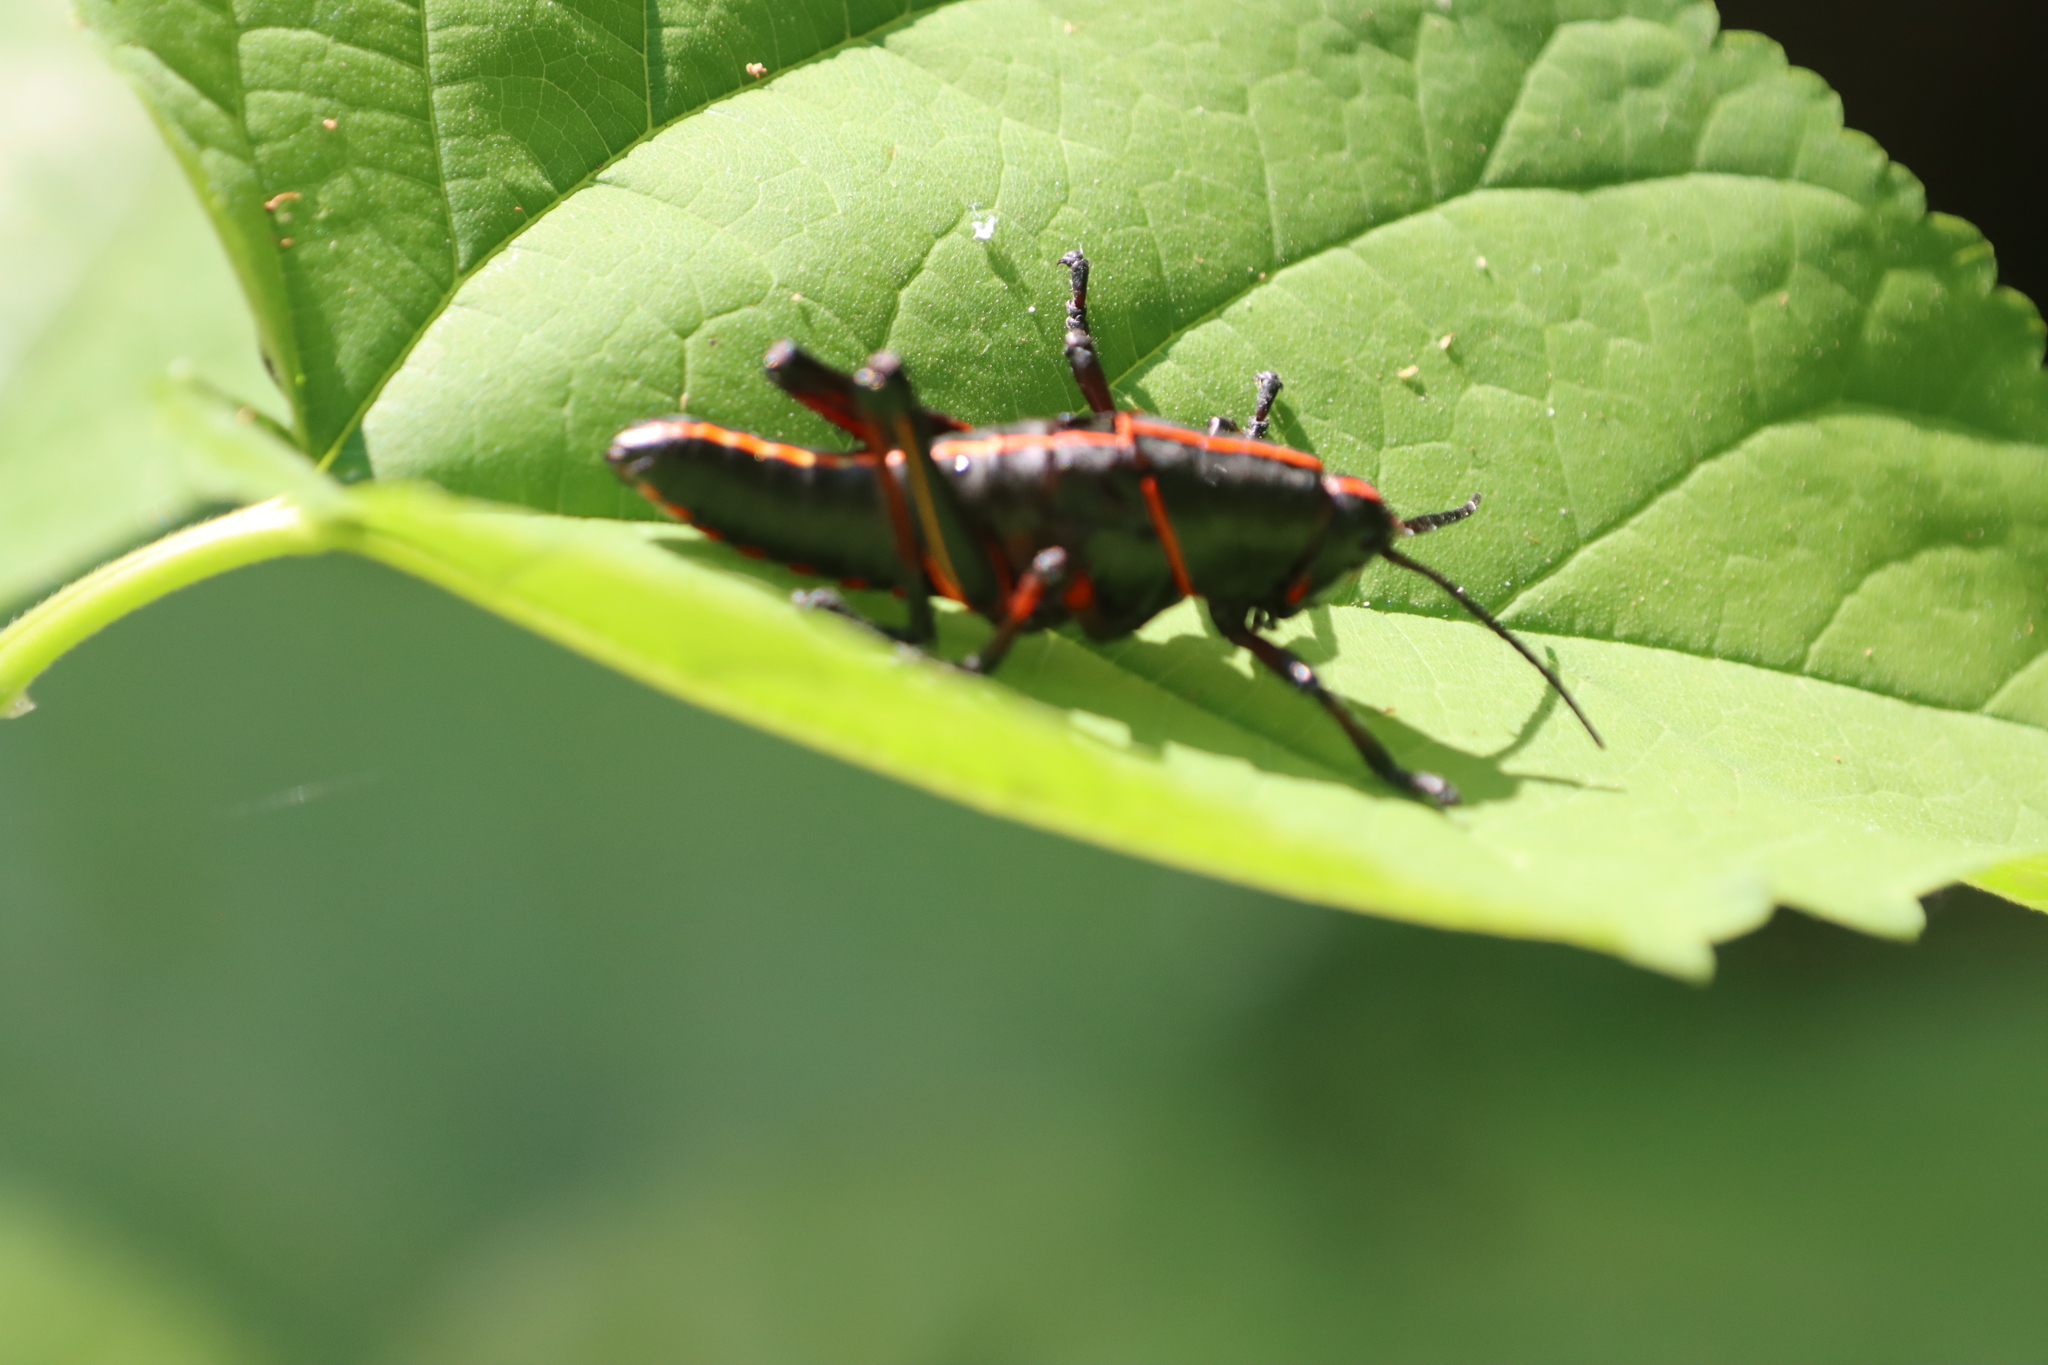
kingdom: Animalia
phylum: Arthropoda
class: Insecta
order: Orthoptera
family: Romaleidae
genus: Romalea
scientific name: Romalea microptera
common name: Eastern lubber grasshopper
